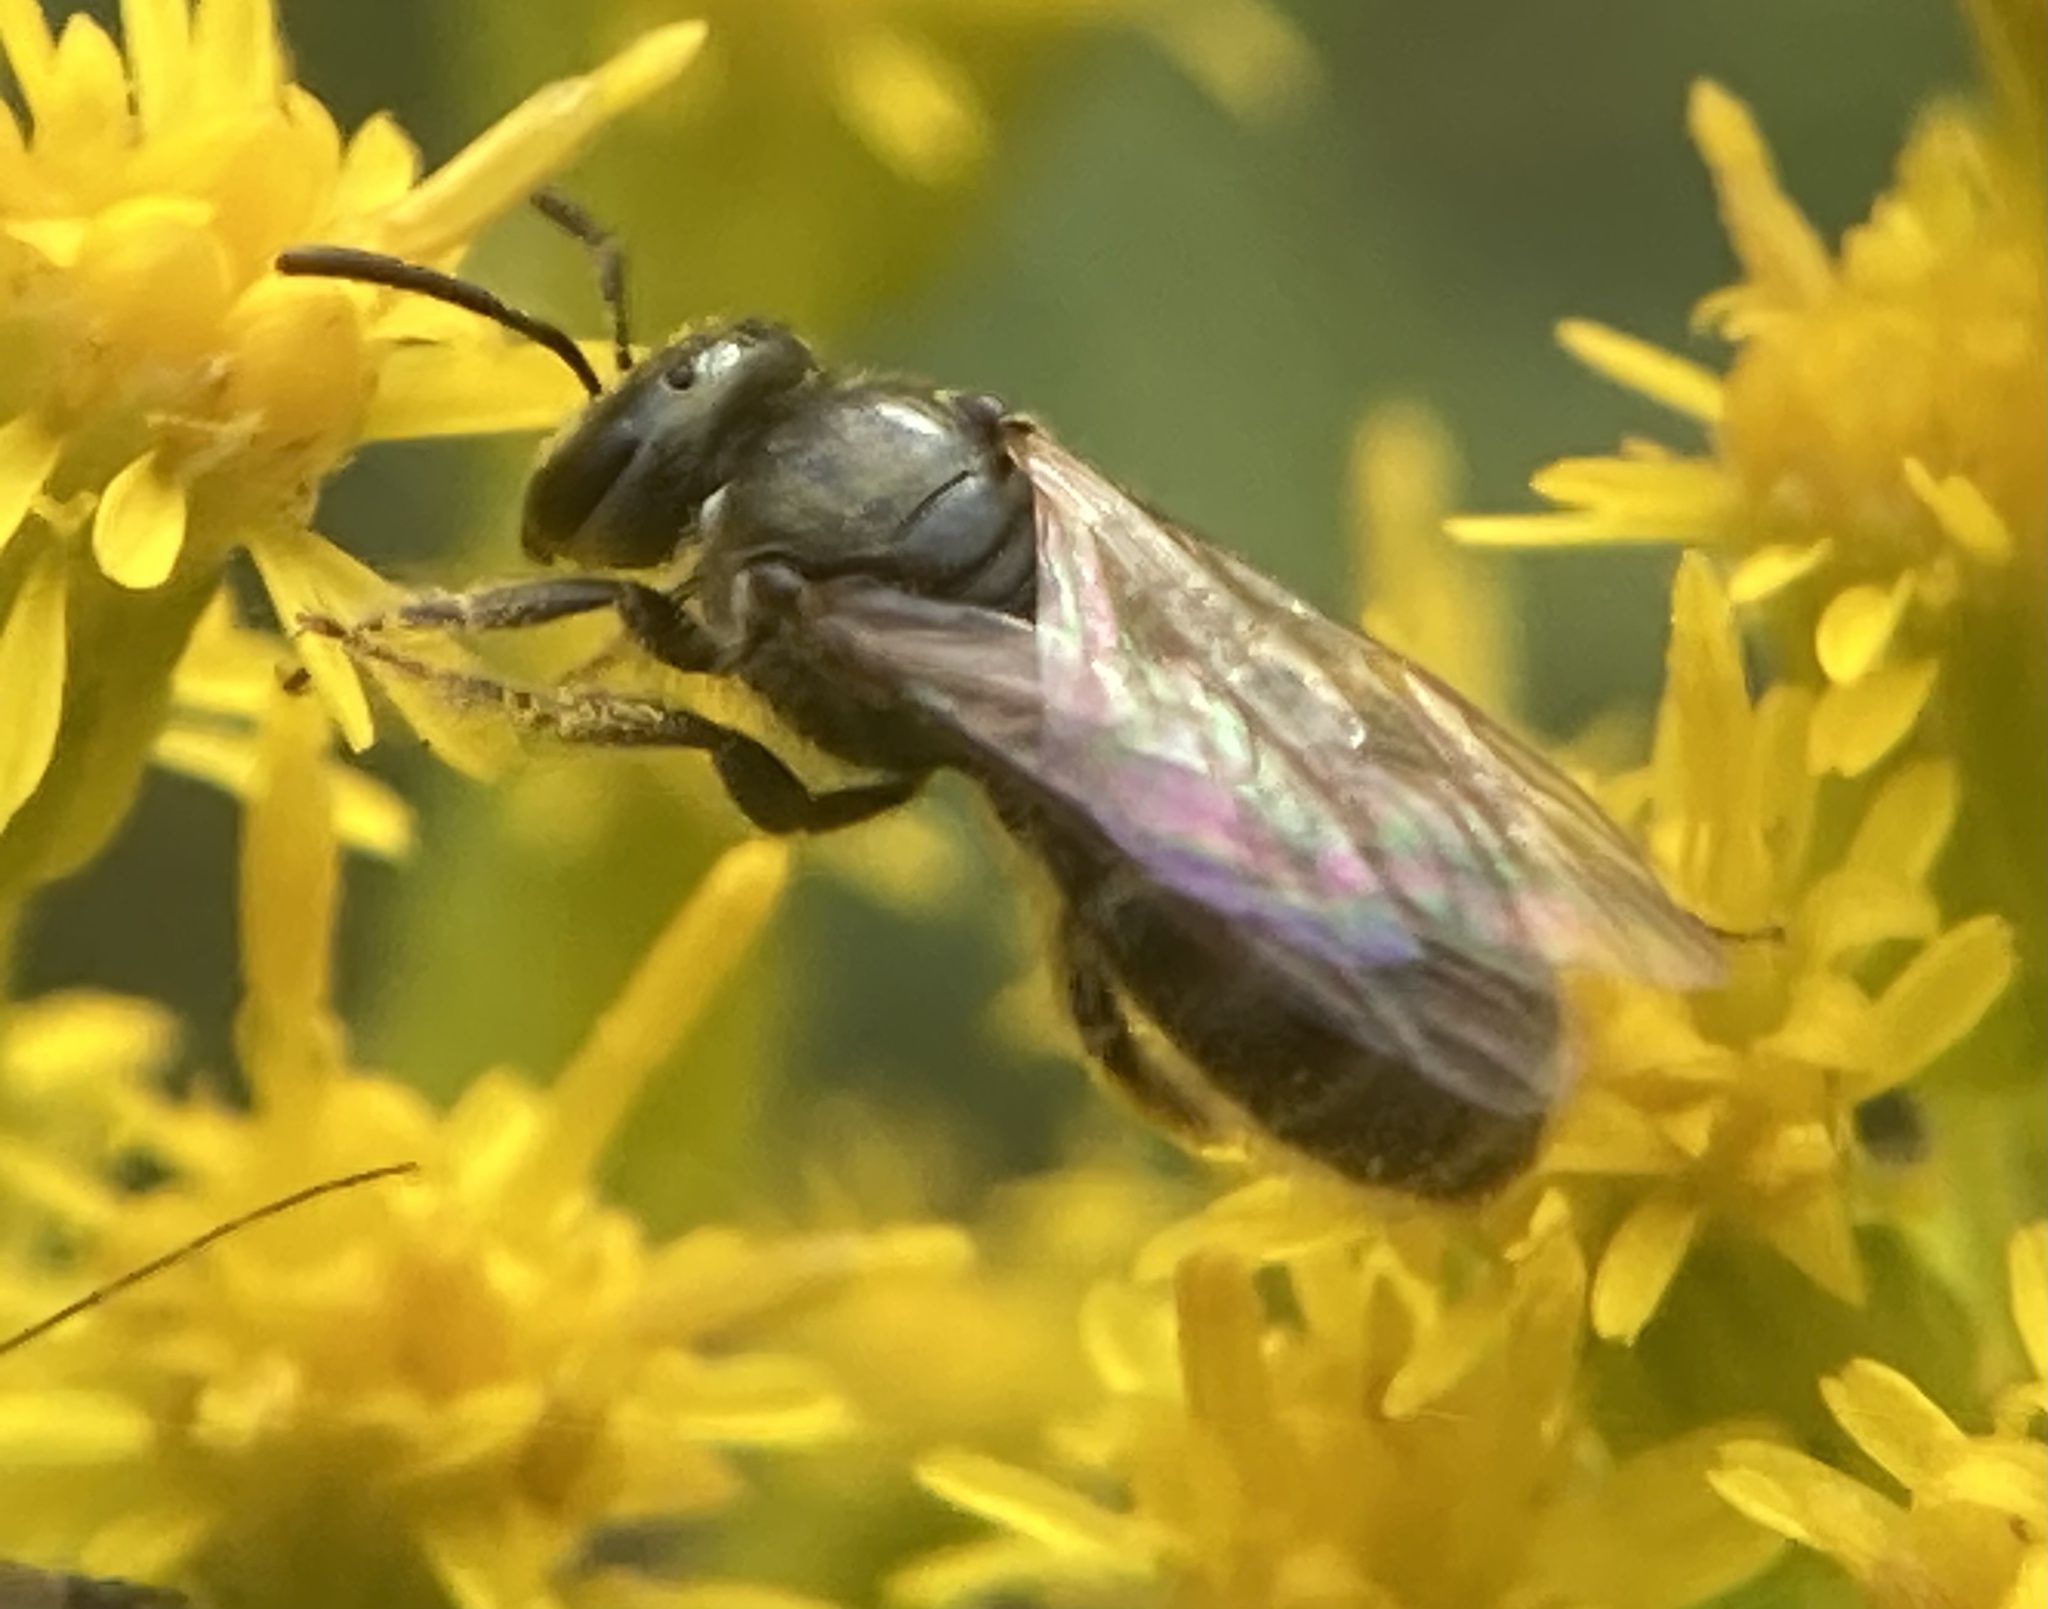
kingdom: Animalia
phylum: Arthropoda
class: Insecta
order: Hymenoptera
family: Halictidae
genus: Dialictus
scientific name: Dialictus
